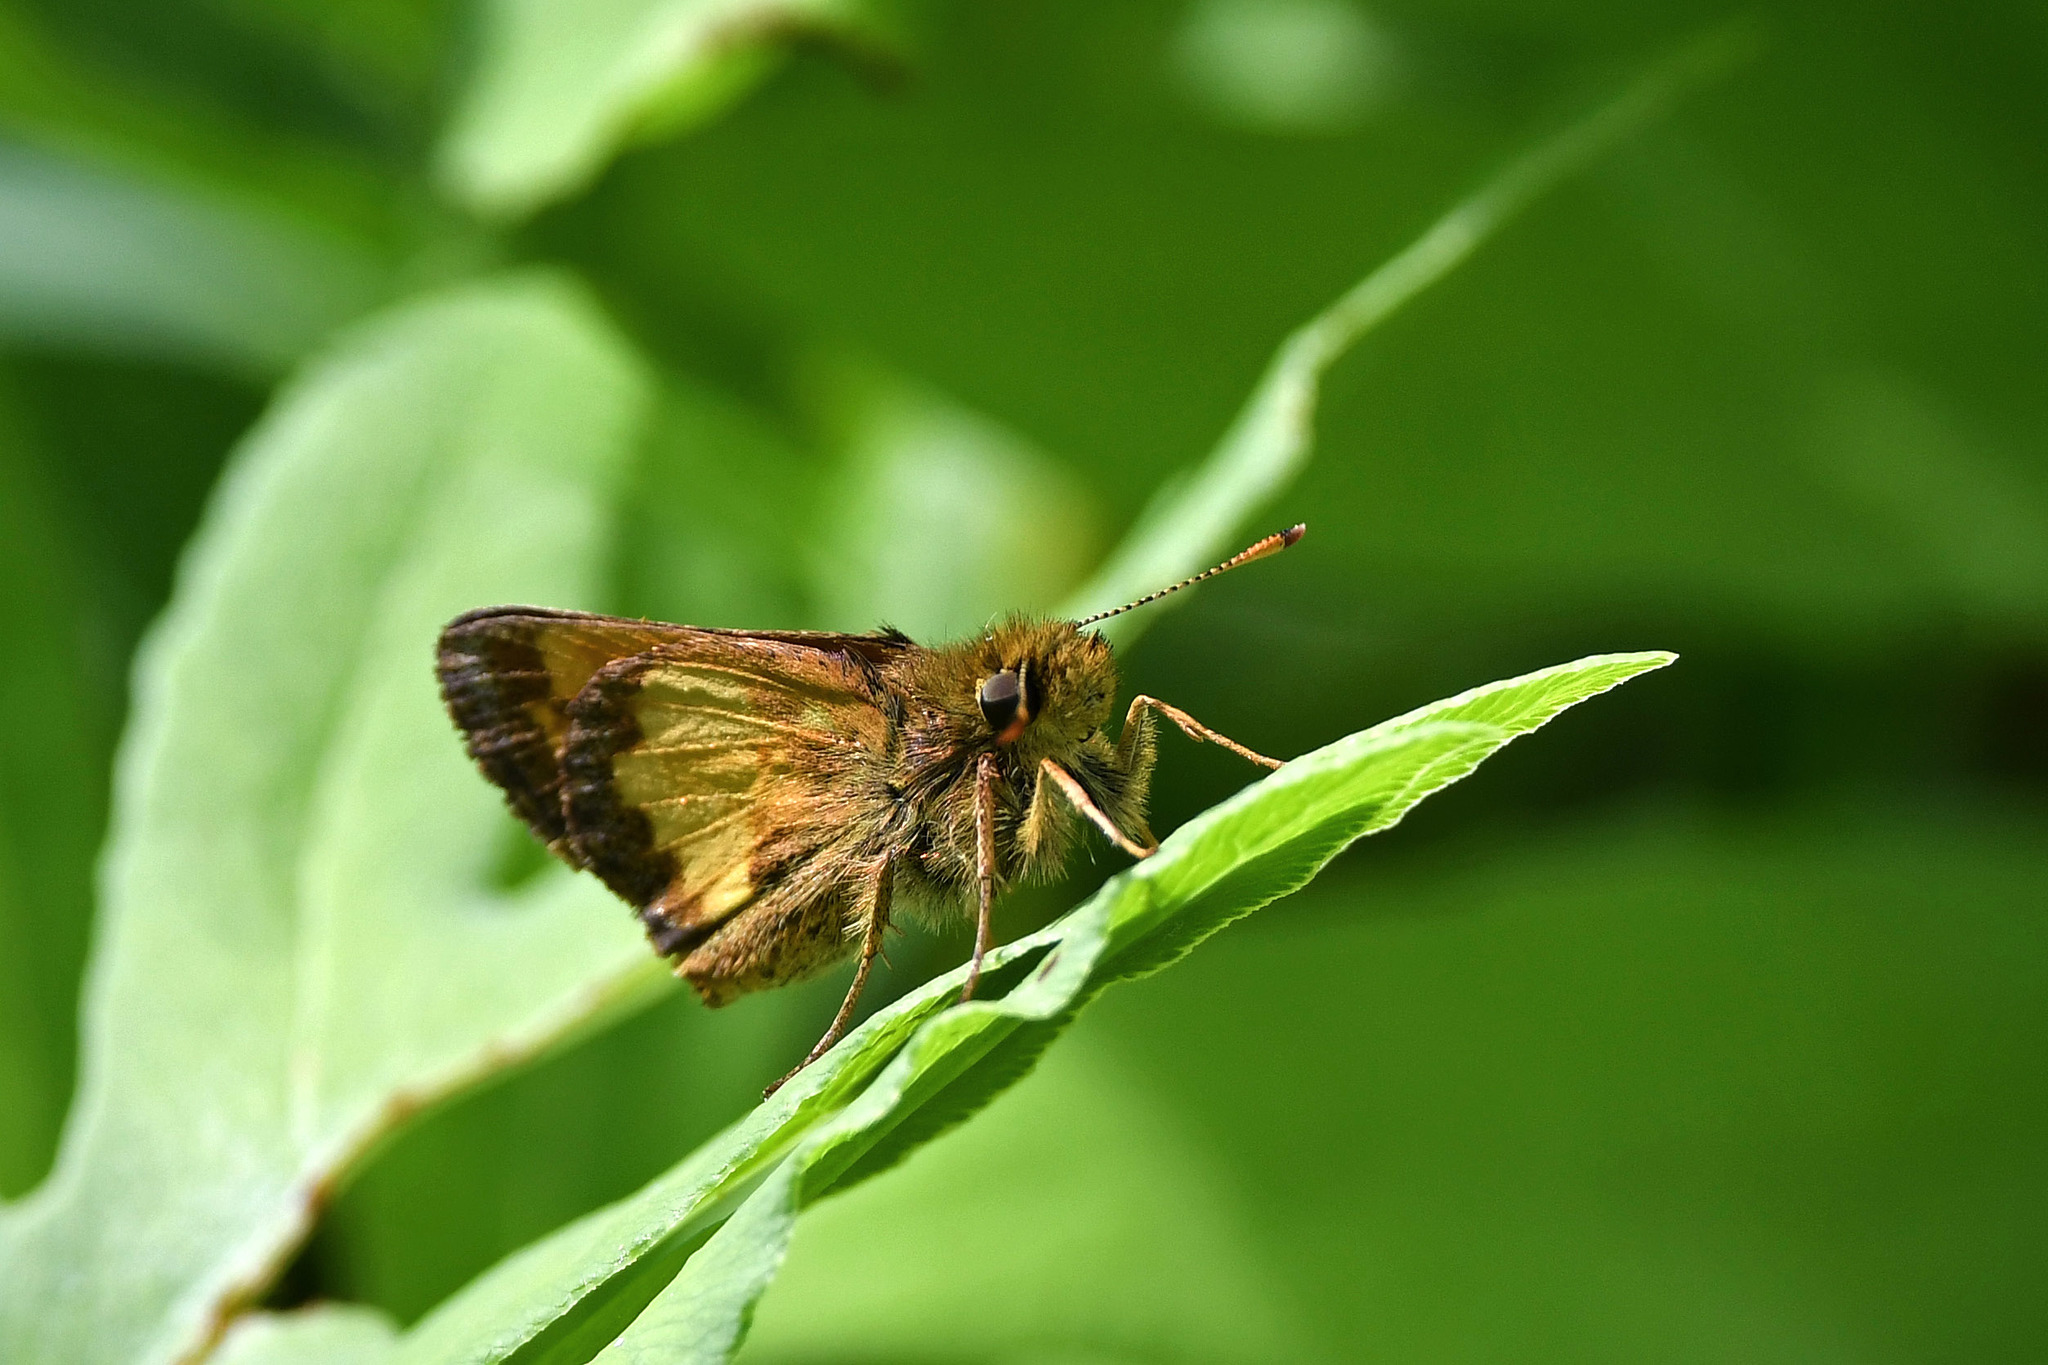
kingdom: Animalia
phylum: Arthropoda
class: Insecta
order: Lepidoptera
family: Hesperiidae
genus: Lon
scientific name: Lon hobomok
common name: Hobomok skipper
